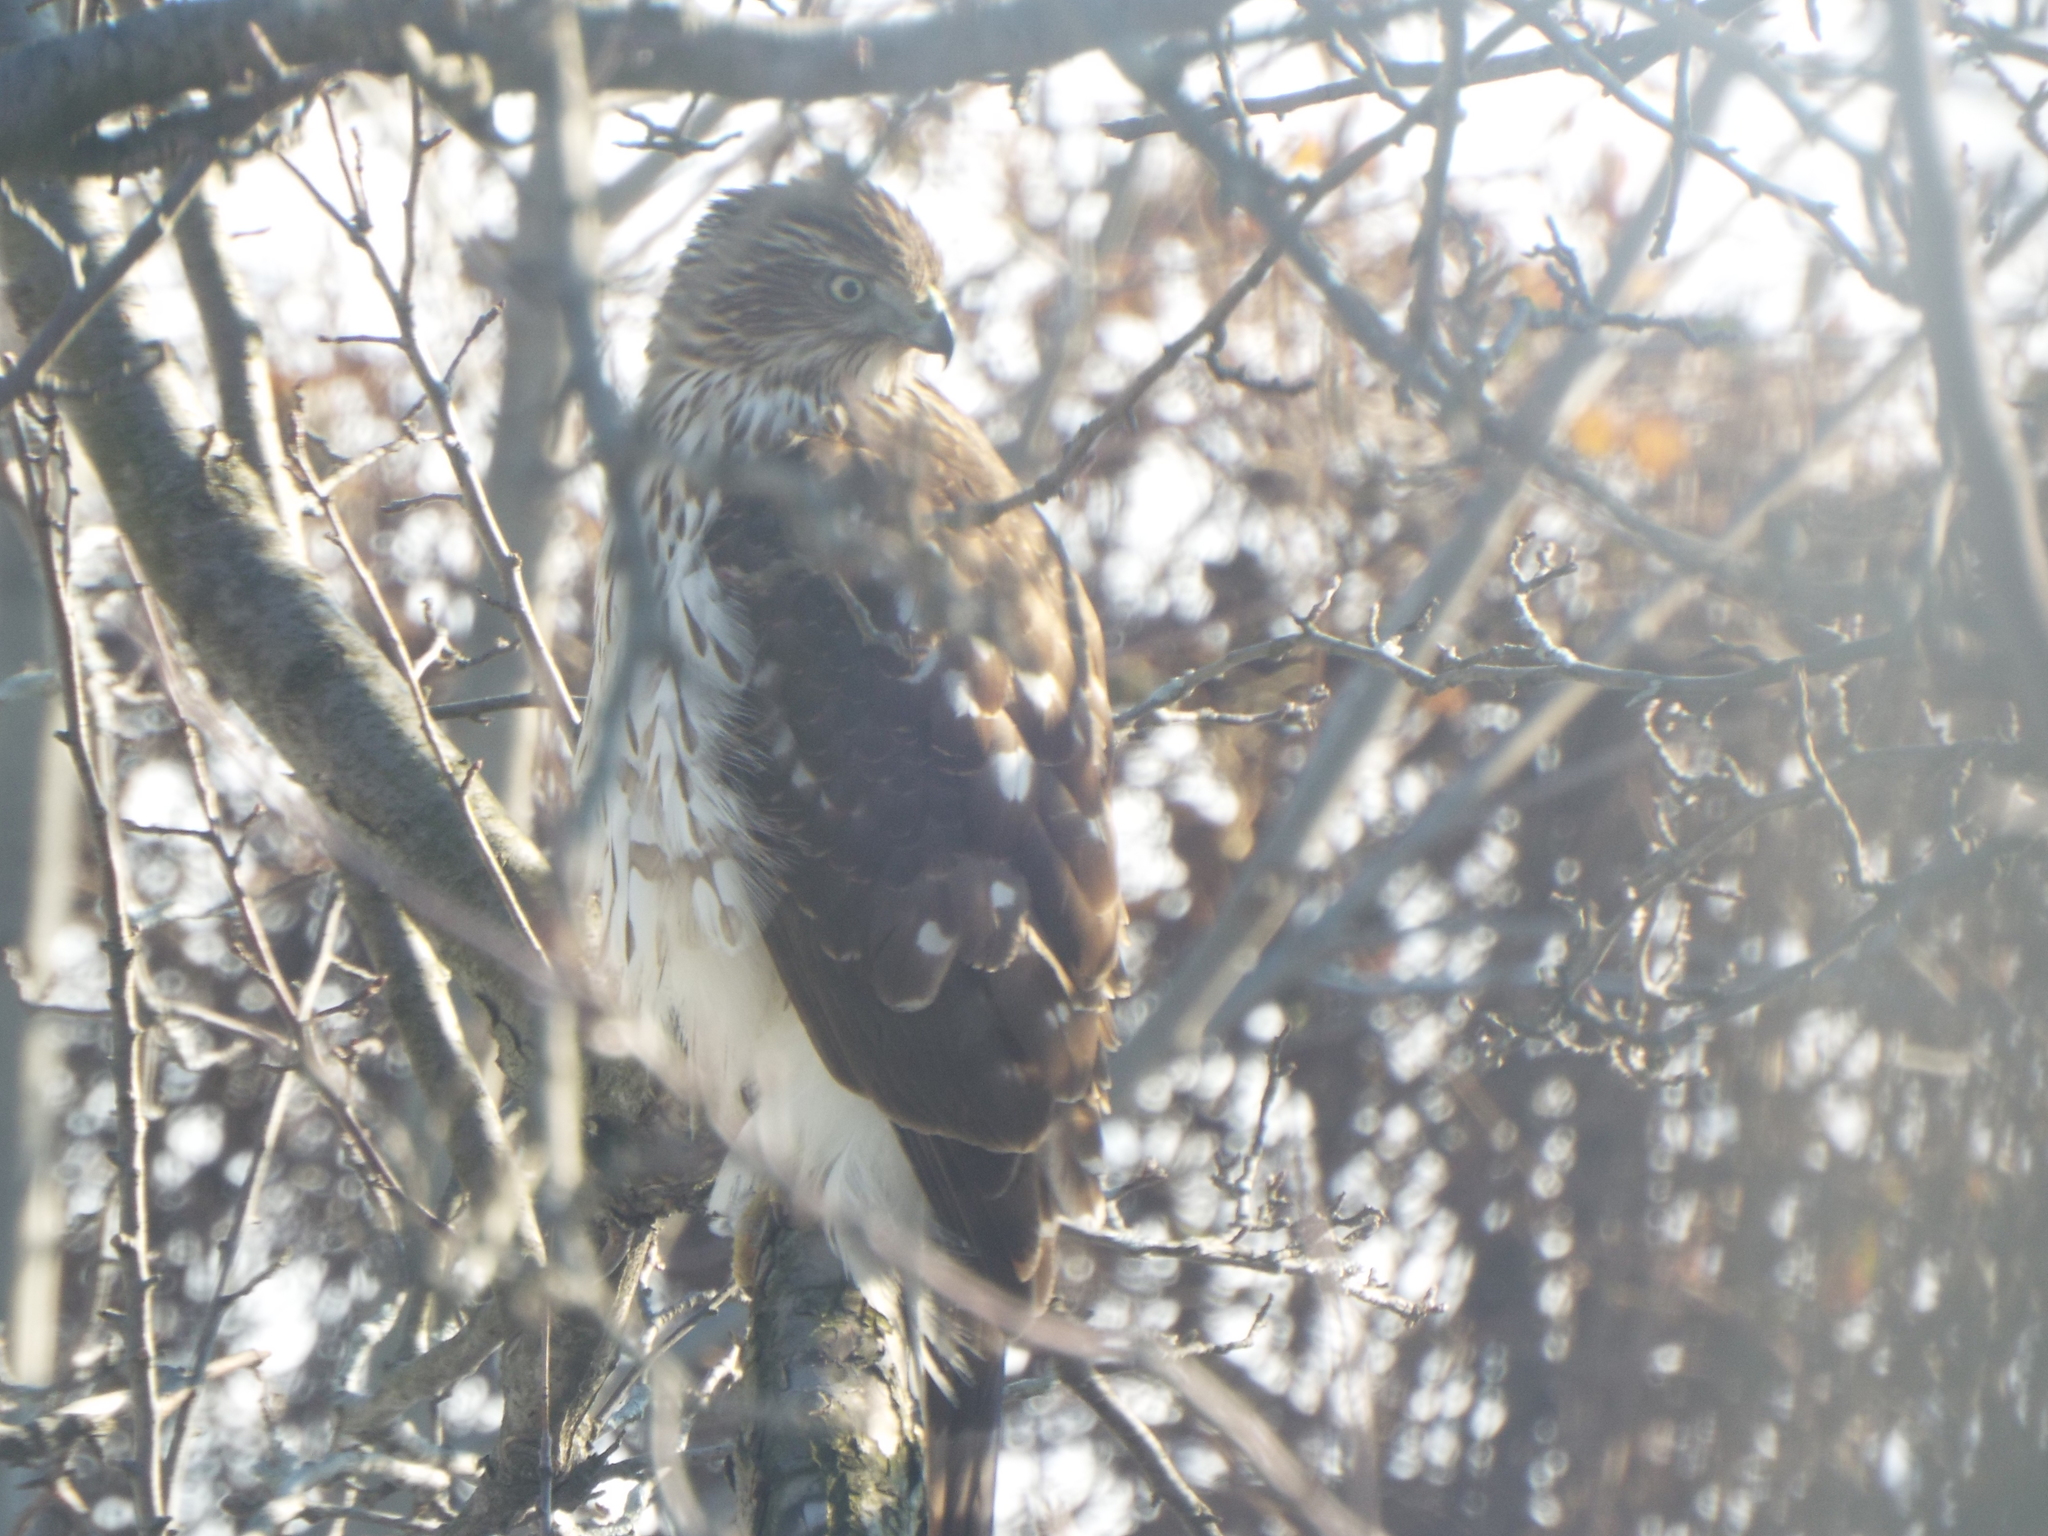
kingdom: Animalia
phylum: Chordata
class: Aves
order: Accipitriformes
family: Accipitridae
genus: Accipiter
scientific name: Accipiter cooperii
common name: Cooper's hawk
